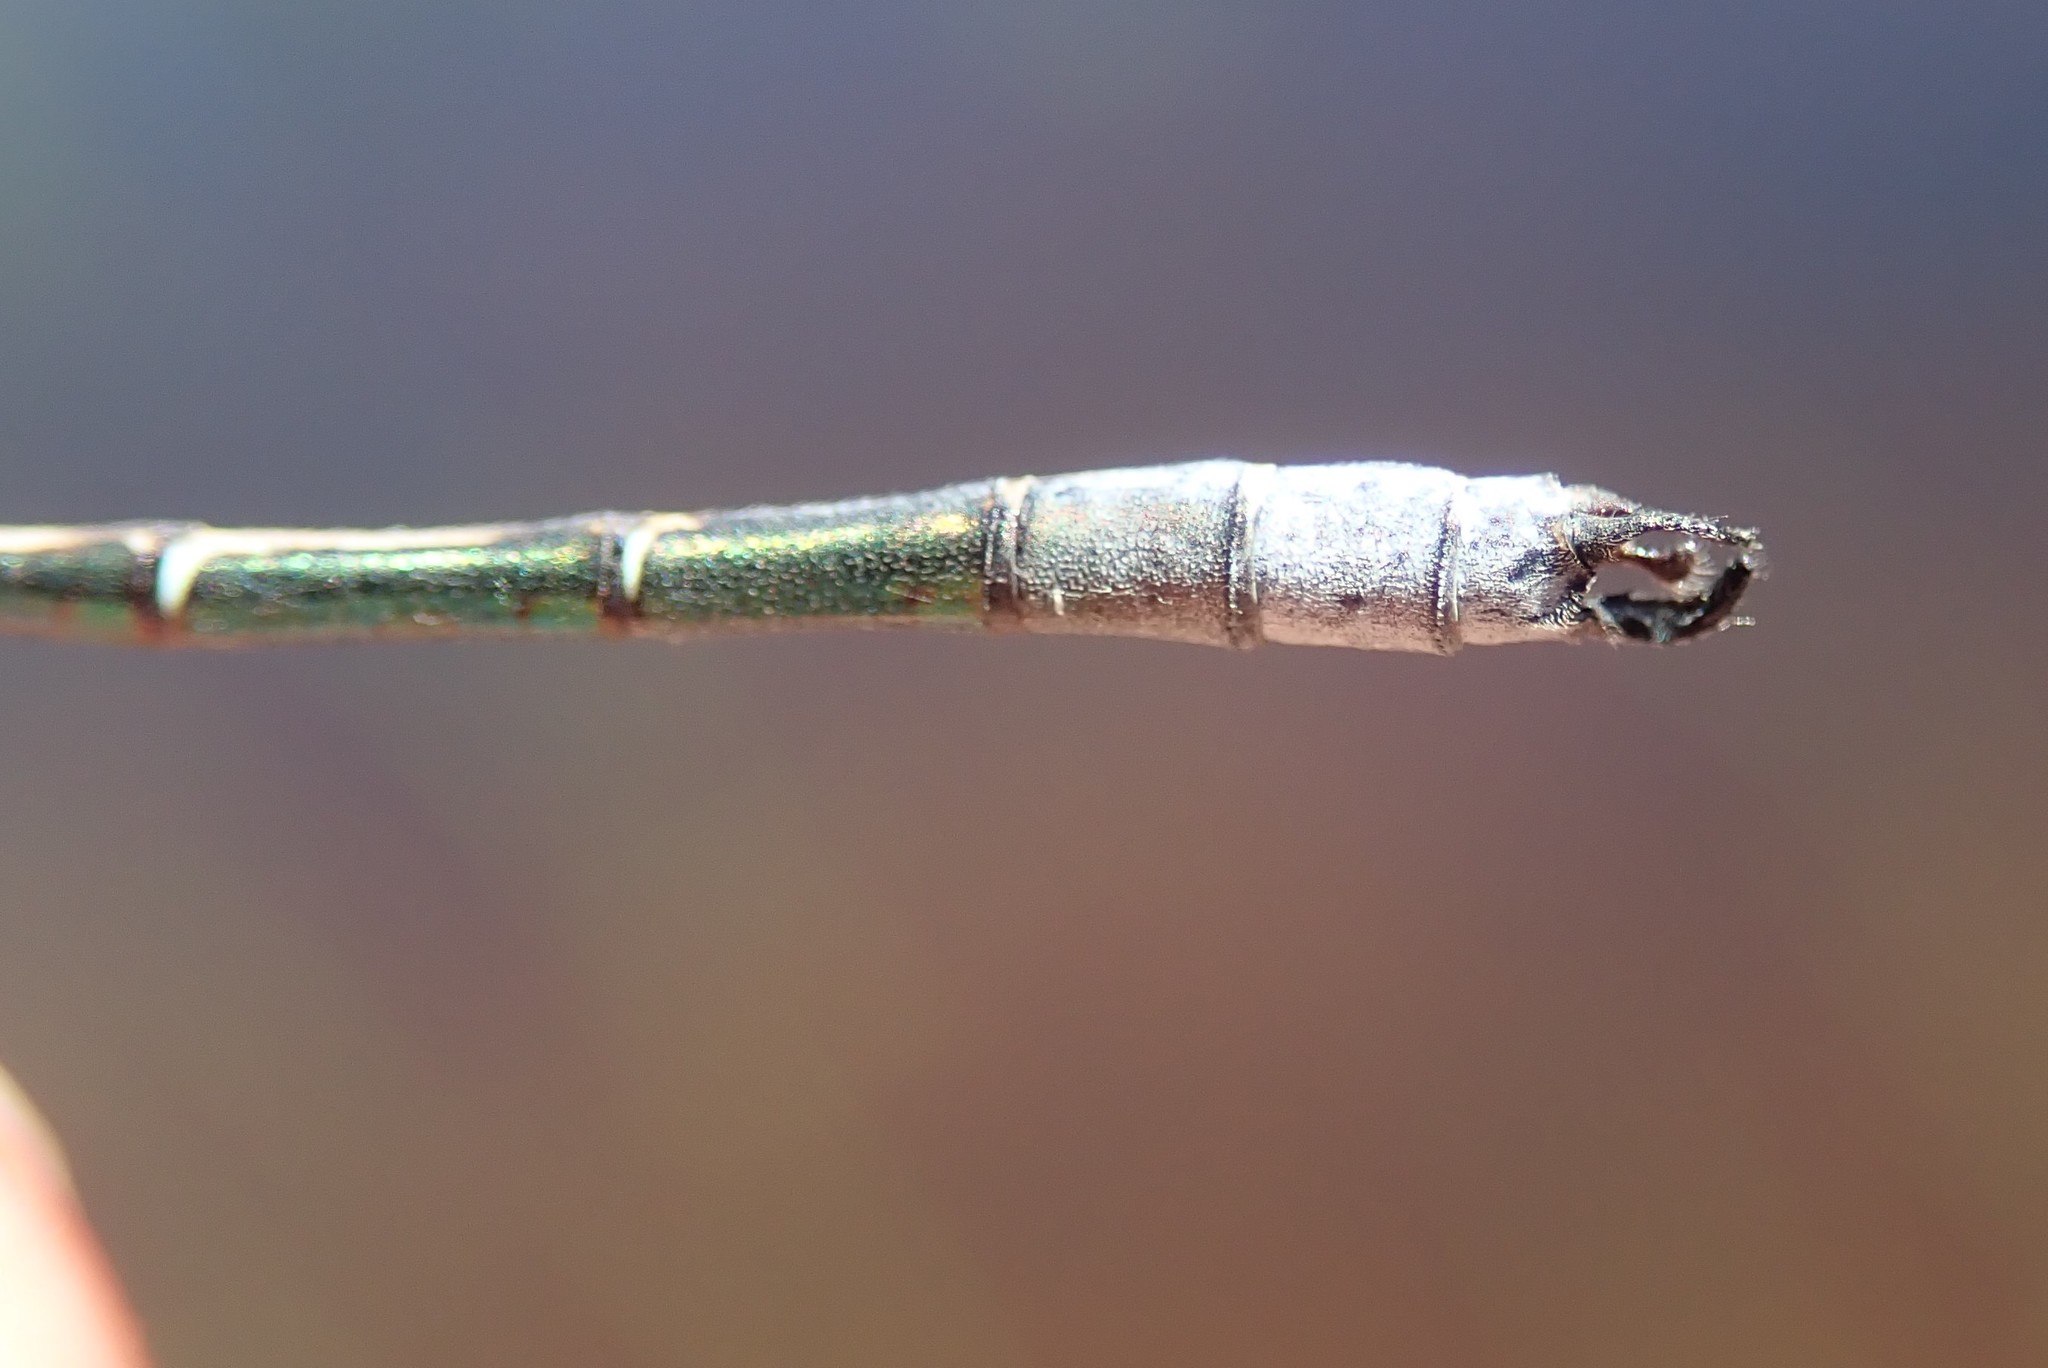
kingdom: Animalia
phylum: Arthropoda
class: Insecta
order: Odonata
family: Lestidae
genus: Lestes
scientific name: Lestes dryas
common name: Scarce emerald damselfly
